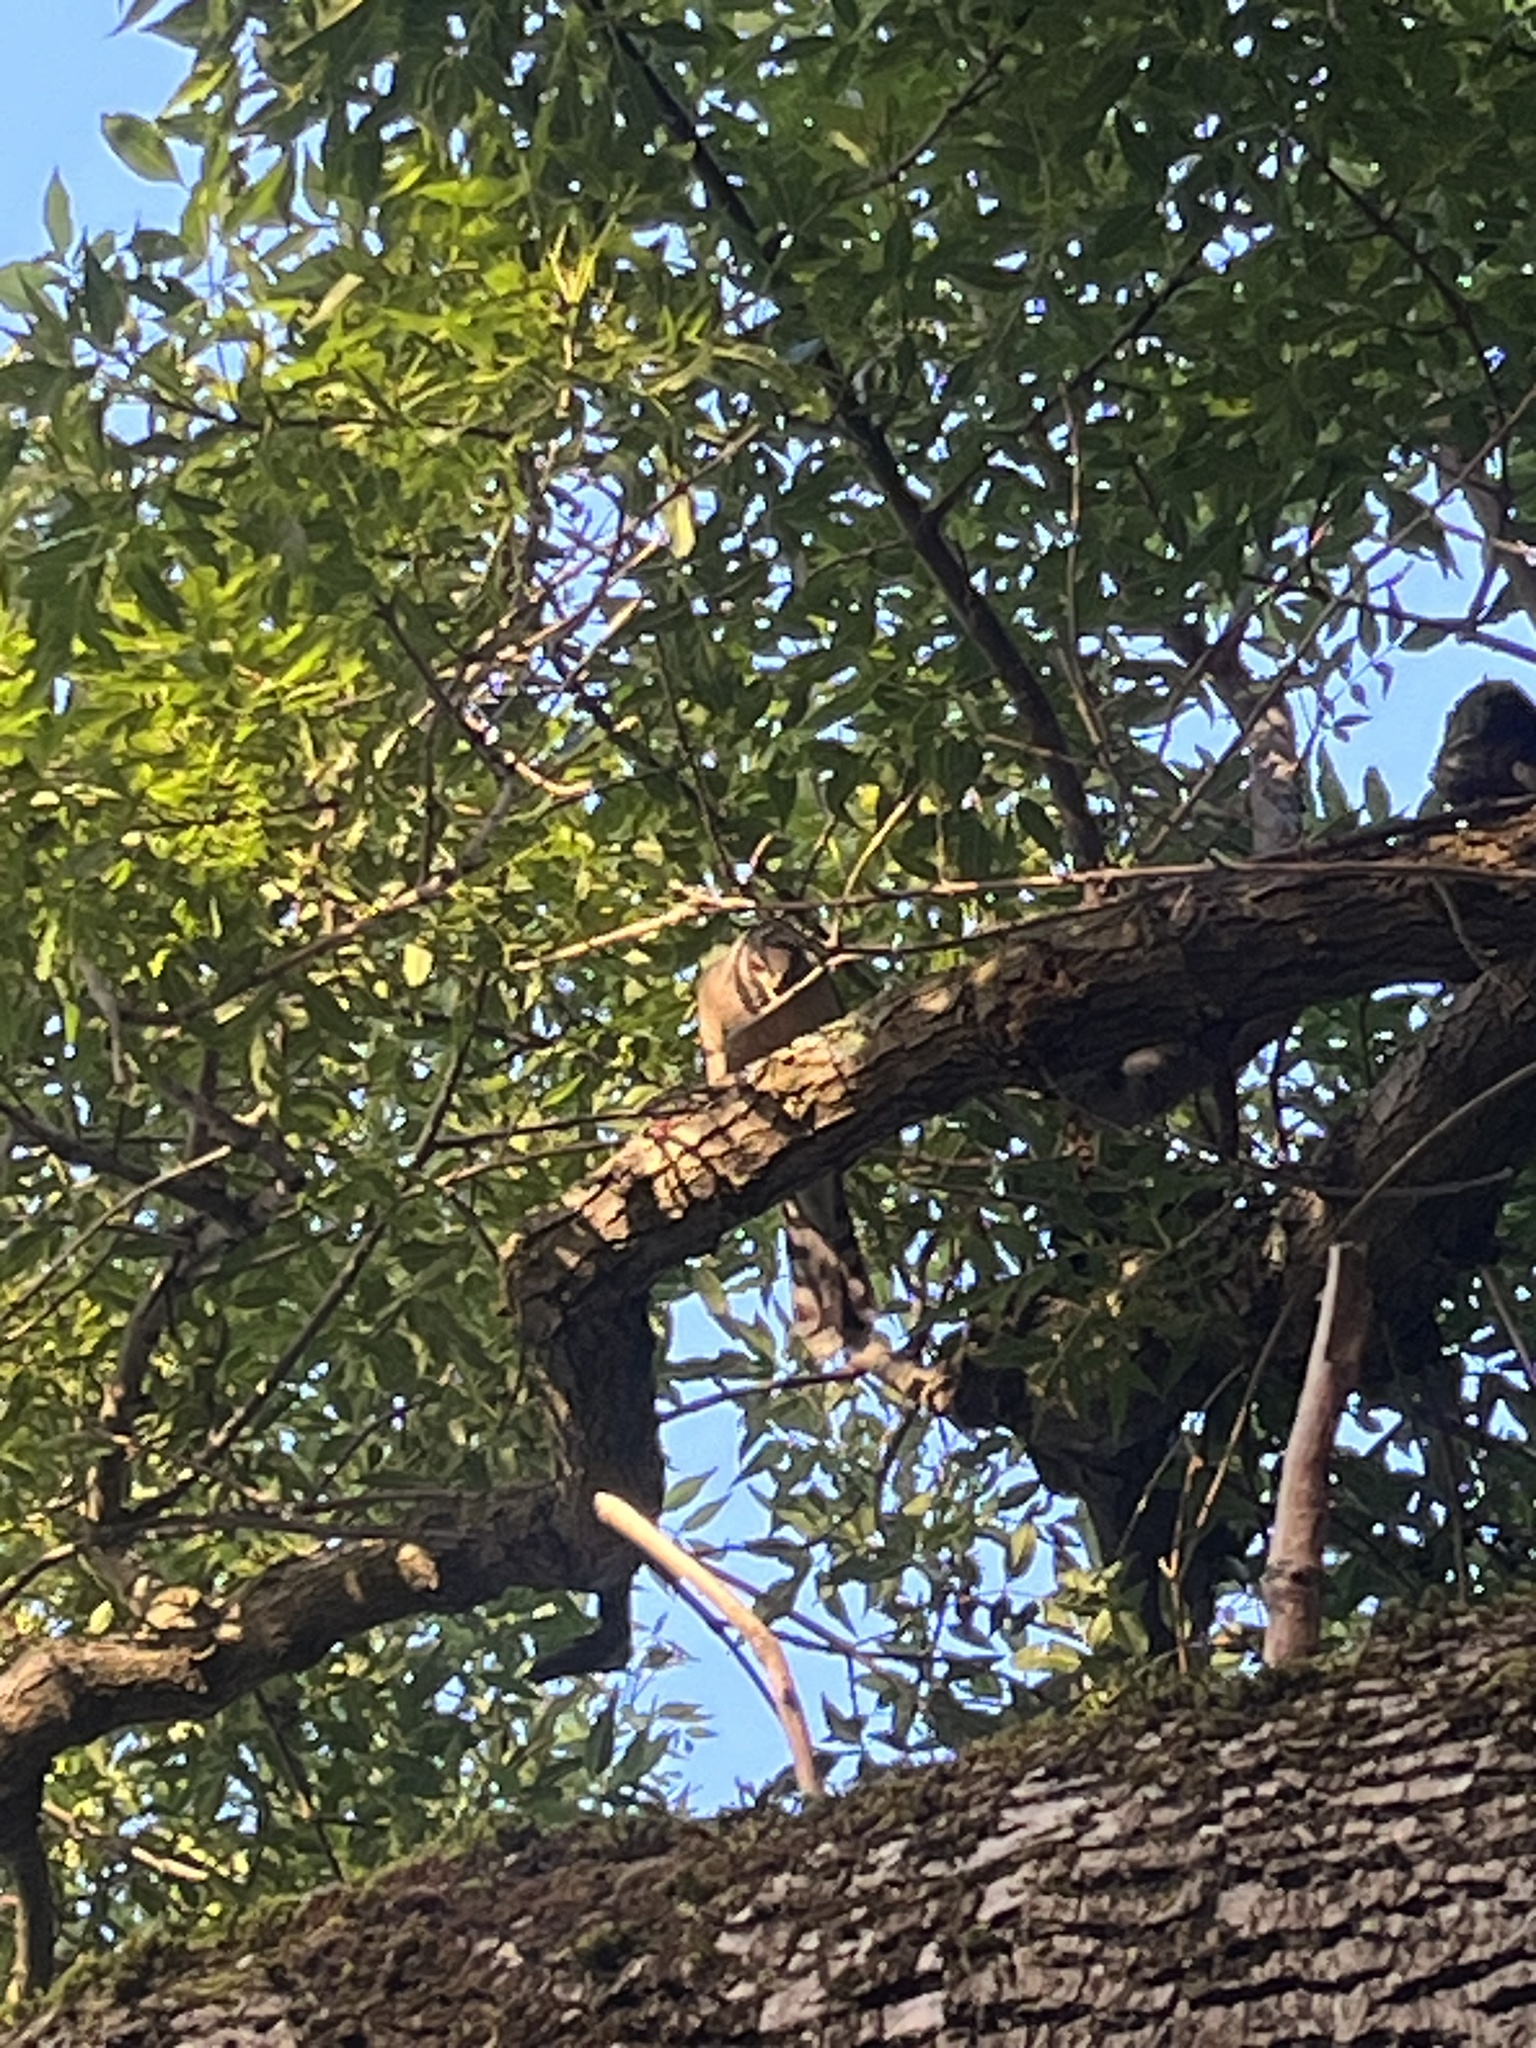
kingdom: Animalia
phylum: Chordata
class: Aves
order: Accipitriformes
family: Accipitridae
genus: Accipiter
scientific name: Accipiter cooperii
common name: Cooper's hawk
